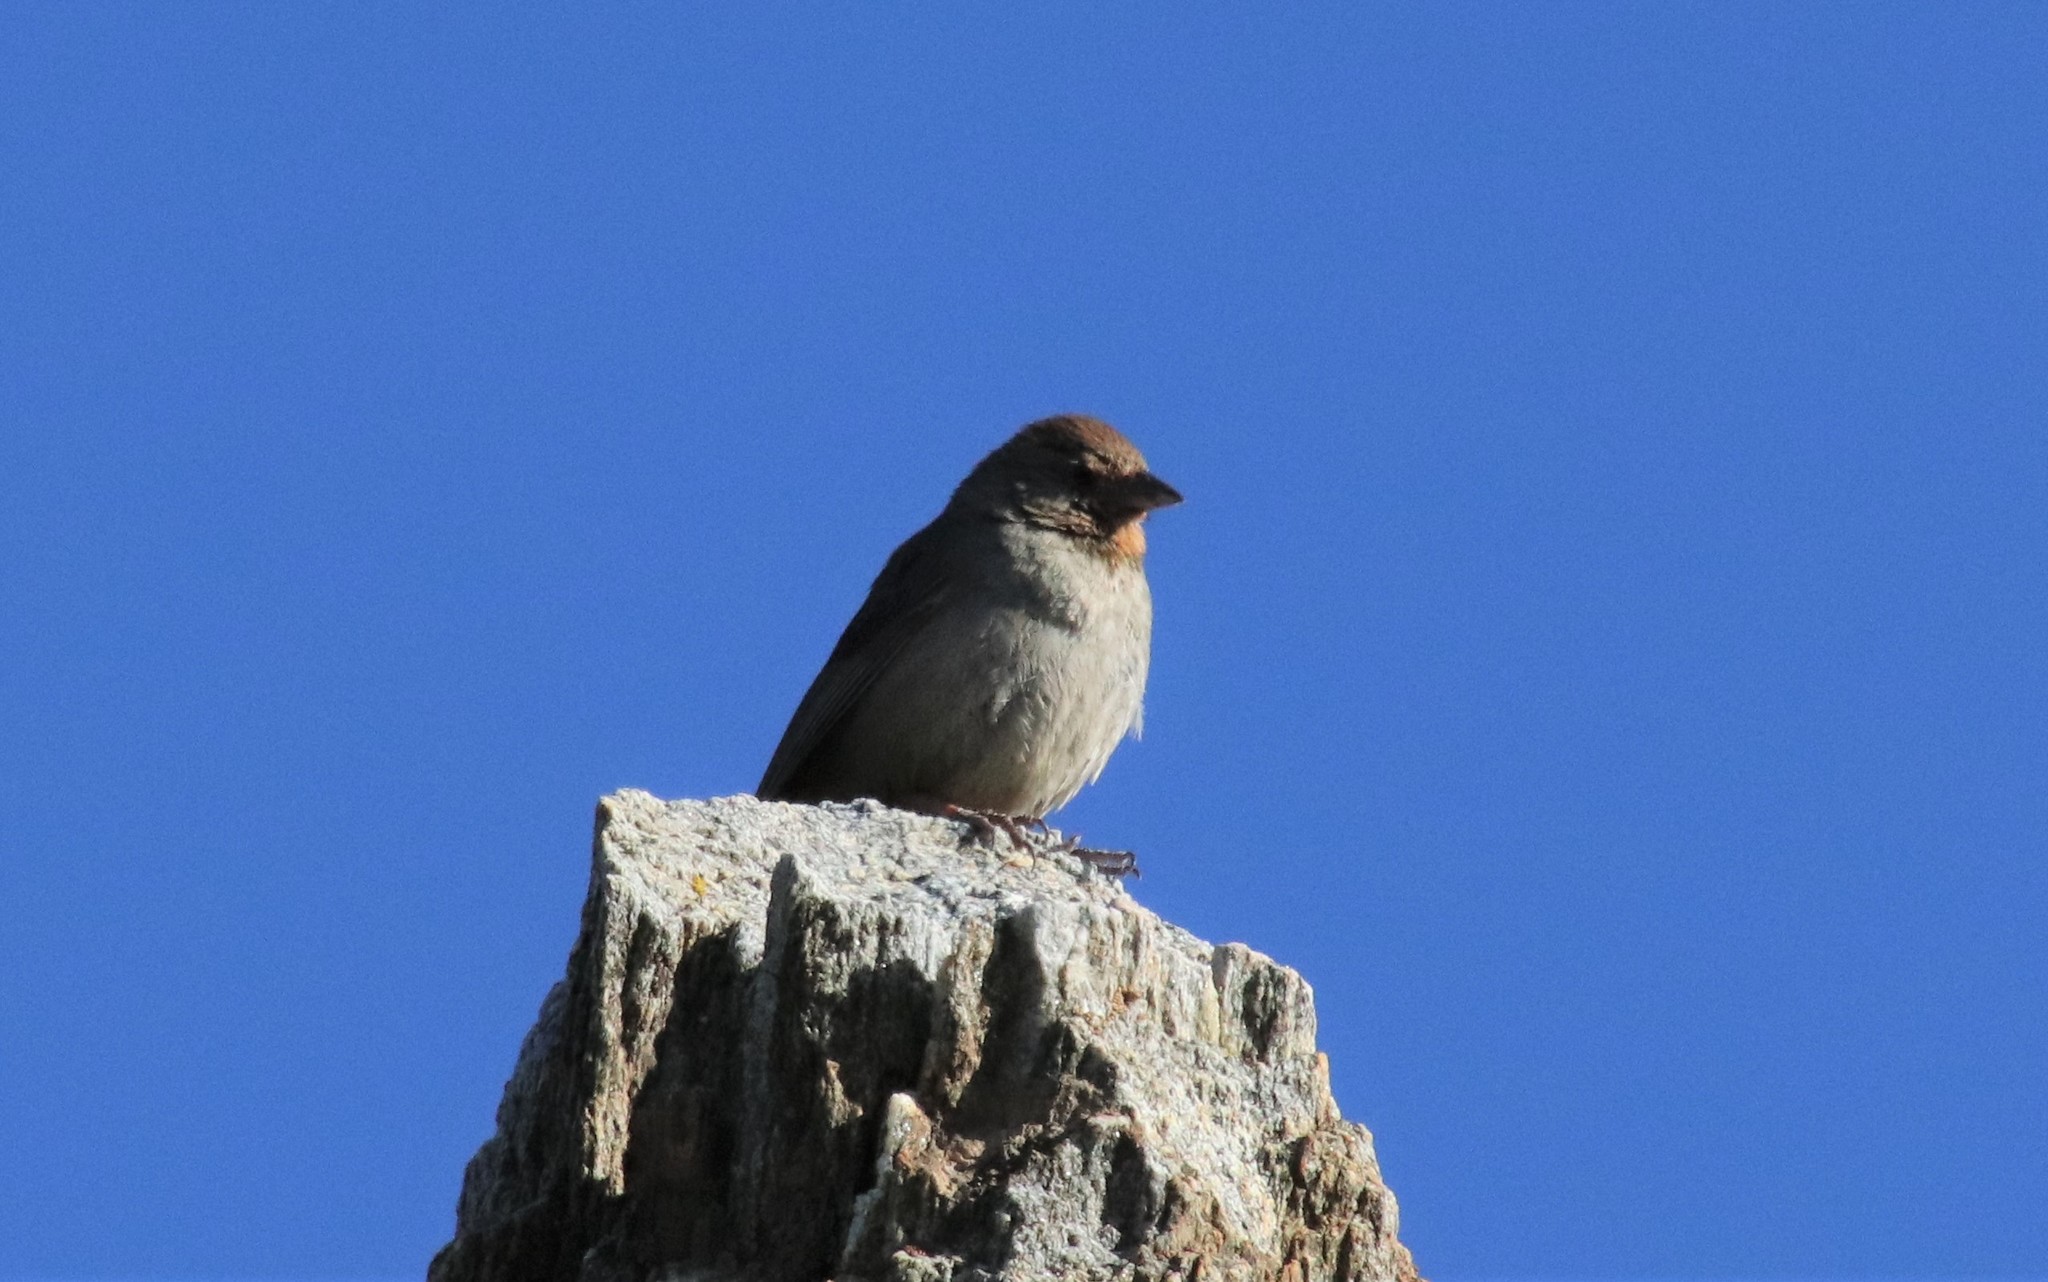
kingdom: Animalia
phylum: Chordata
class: Aves
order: Passeriformes
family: Passerellidae
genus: Melozone
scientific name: Melozone crissalis
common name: California towhee
